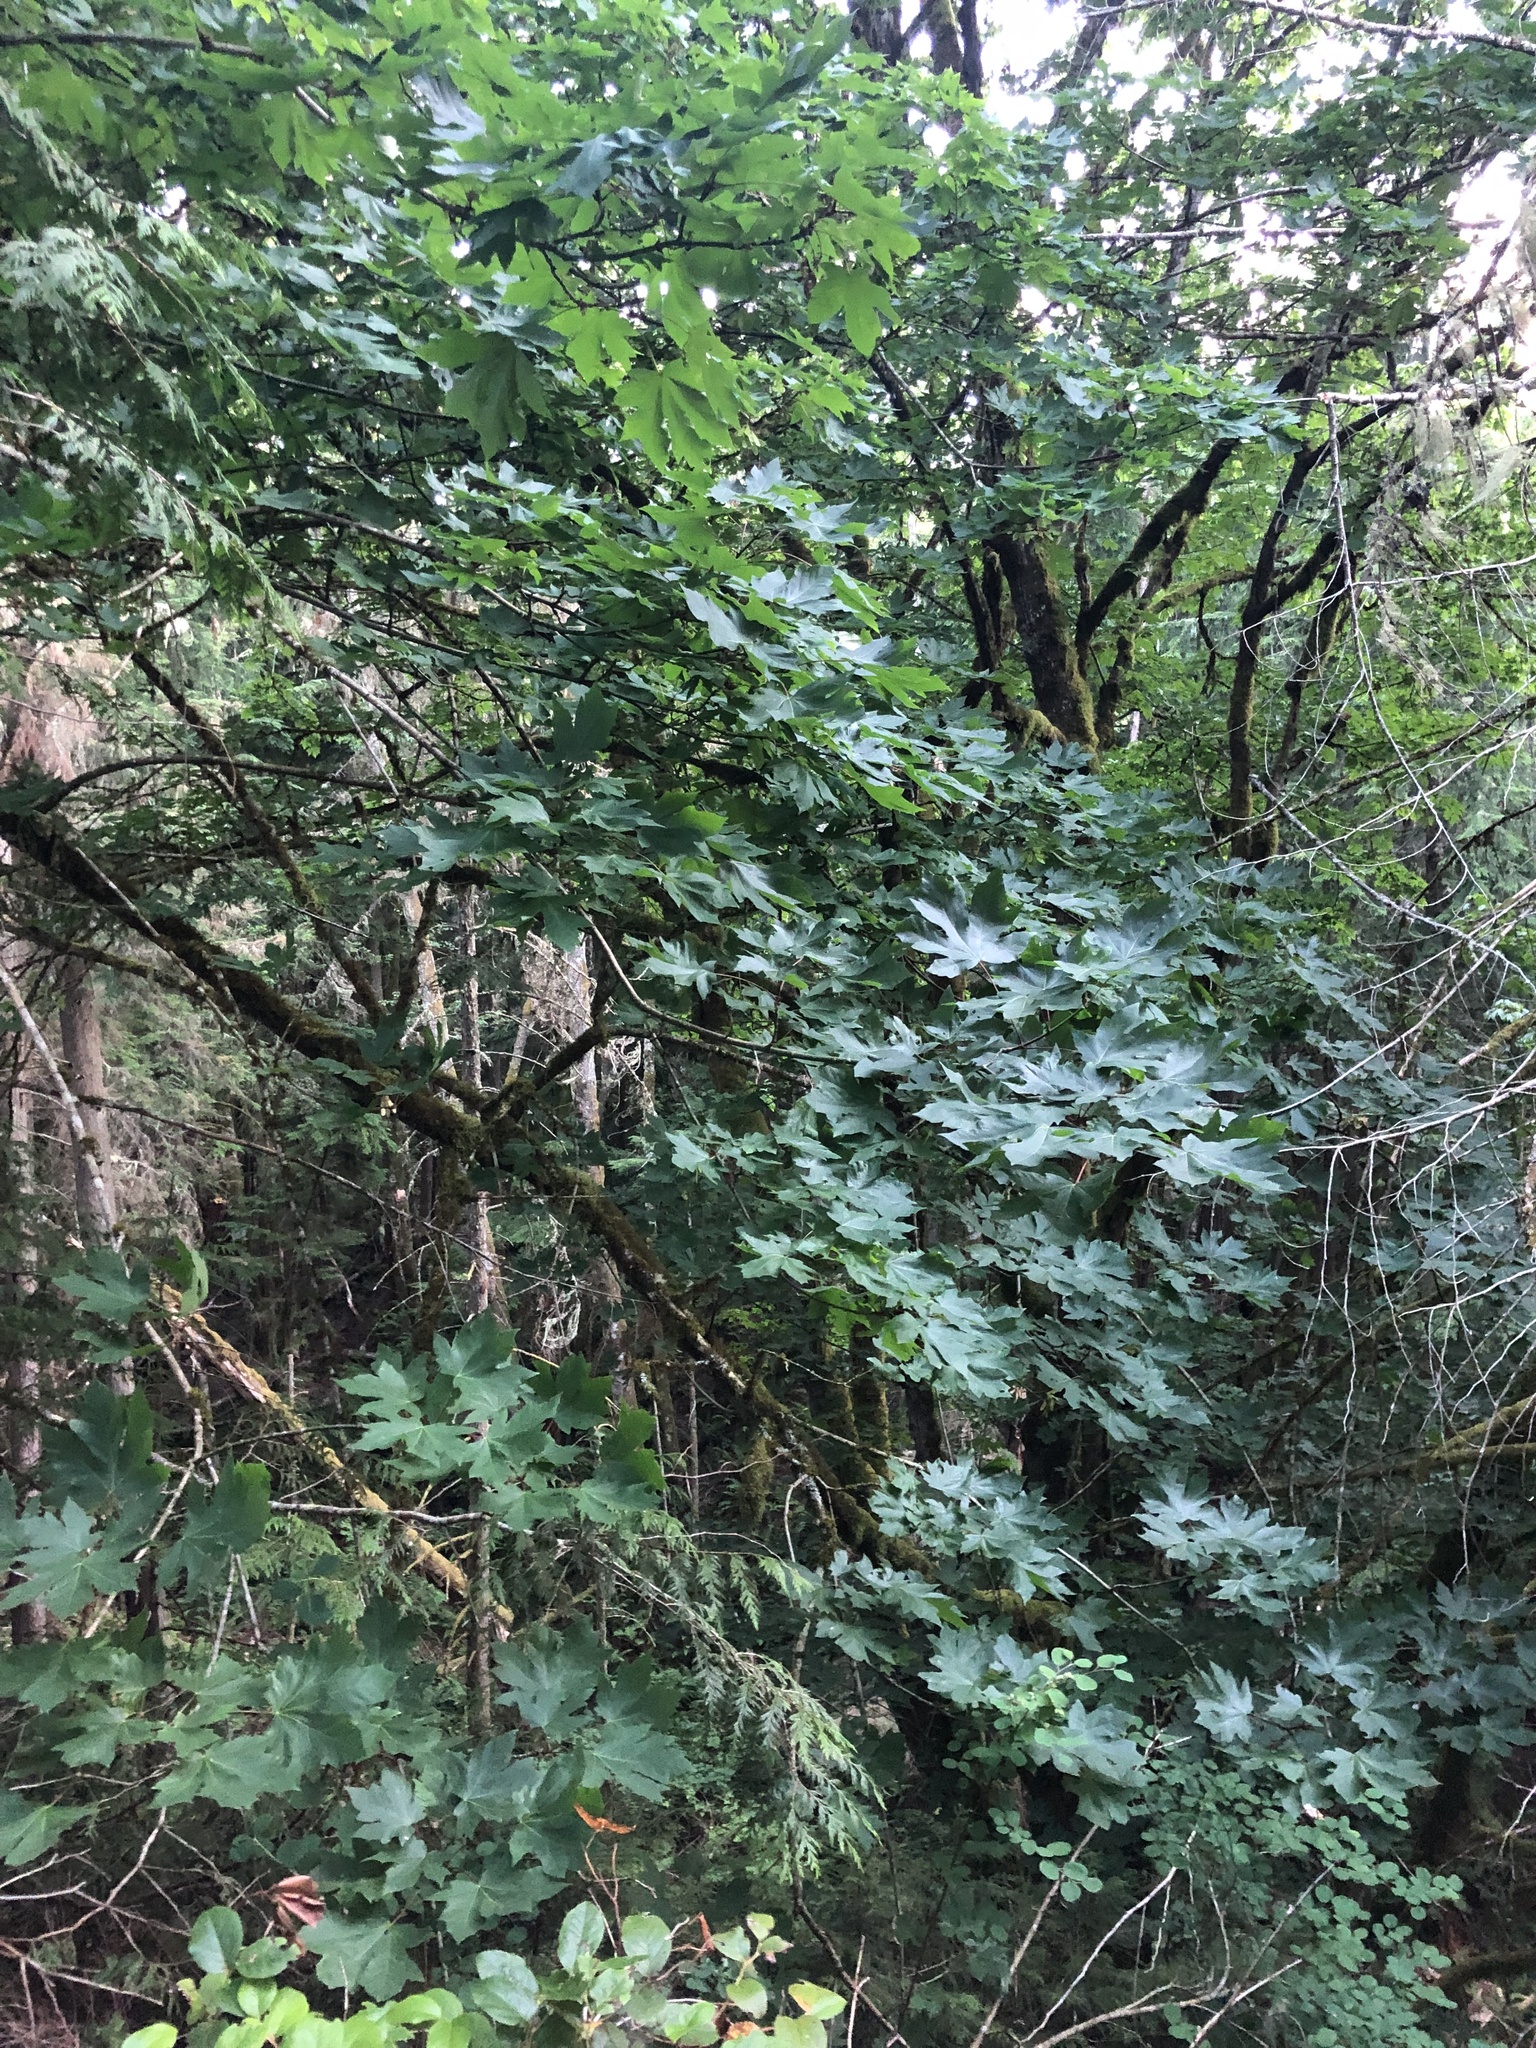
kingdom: Plantae
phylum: Tracheophyta
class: Magnoliopsida
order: Sapindales
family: Sapindaceae
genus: Acer
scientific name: Acer macrophyllum
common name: Oregon maple
